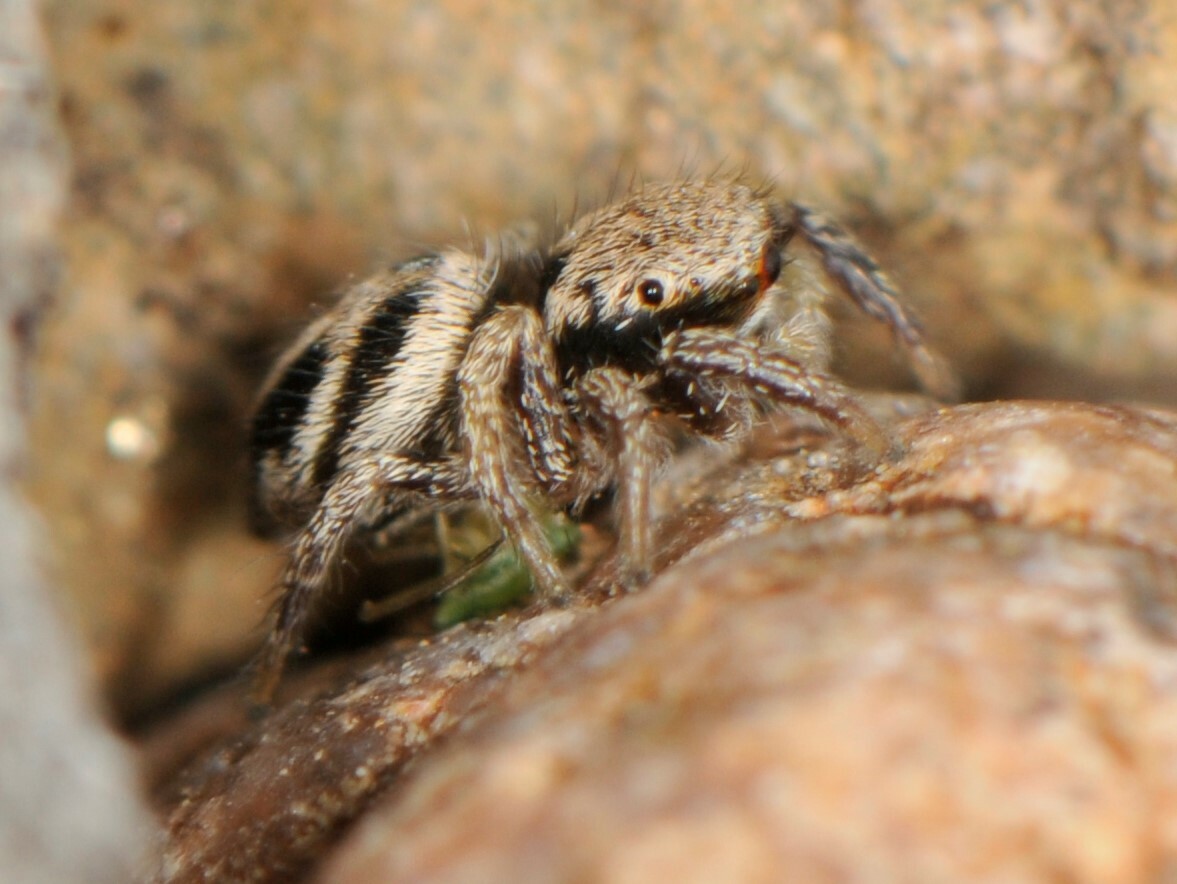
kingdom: Animalia
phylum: Arthropoda
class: Arachnida
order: Araneae
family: Salticidae
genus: Habronattus
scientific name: Habronattus klauseri
